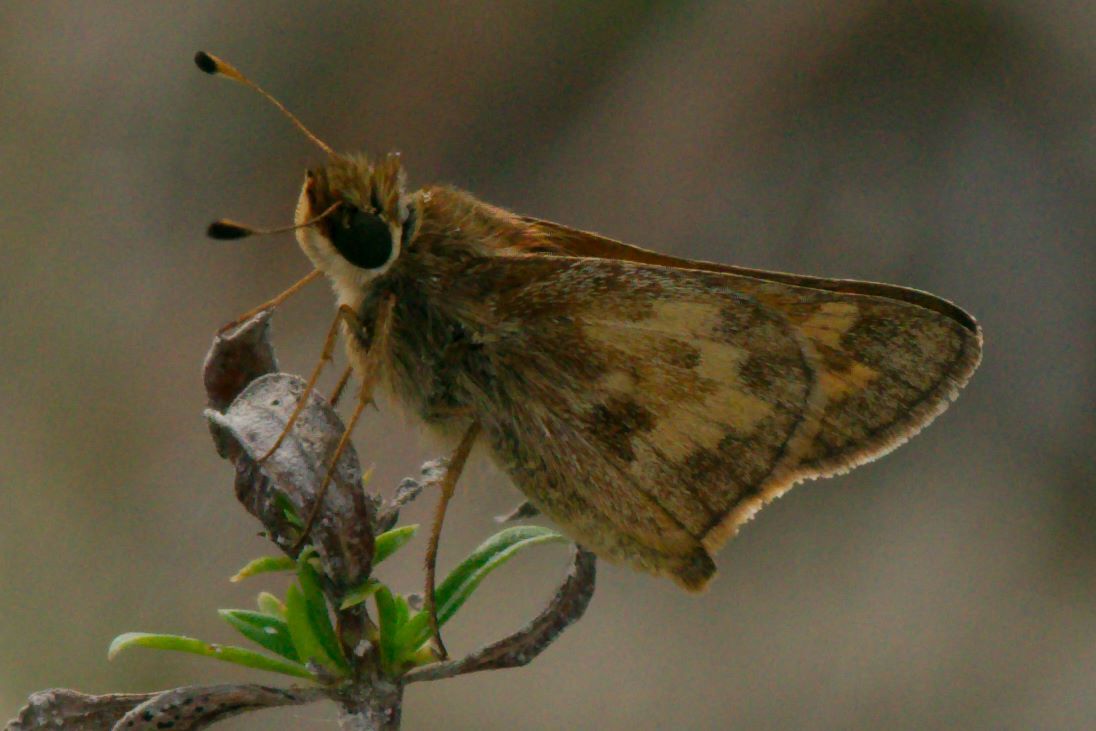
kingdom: Animalia
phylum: Arthropoda
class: Insecta
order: Lepidoptera
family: Hesperiidae
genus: Atalopedes
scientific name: Atalopedes
